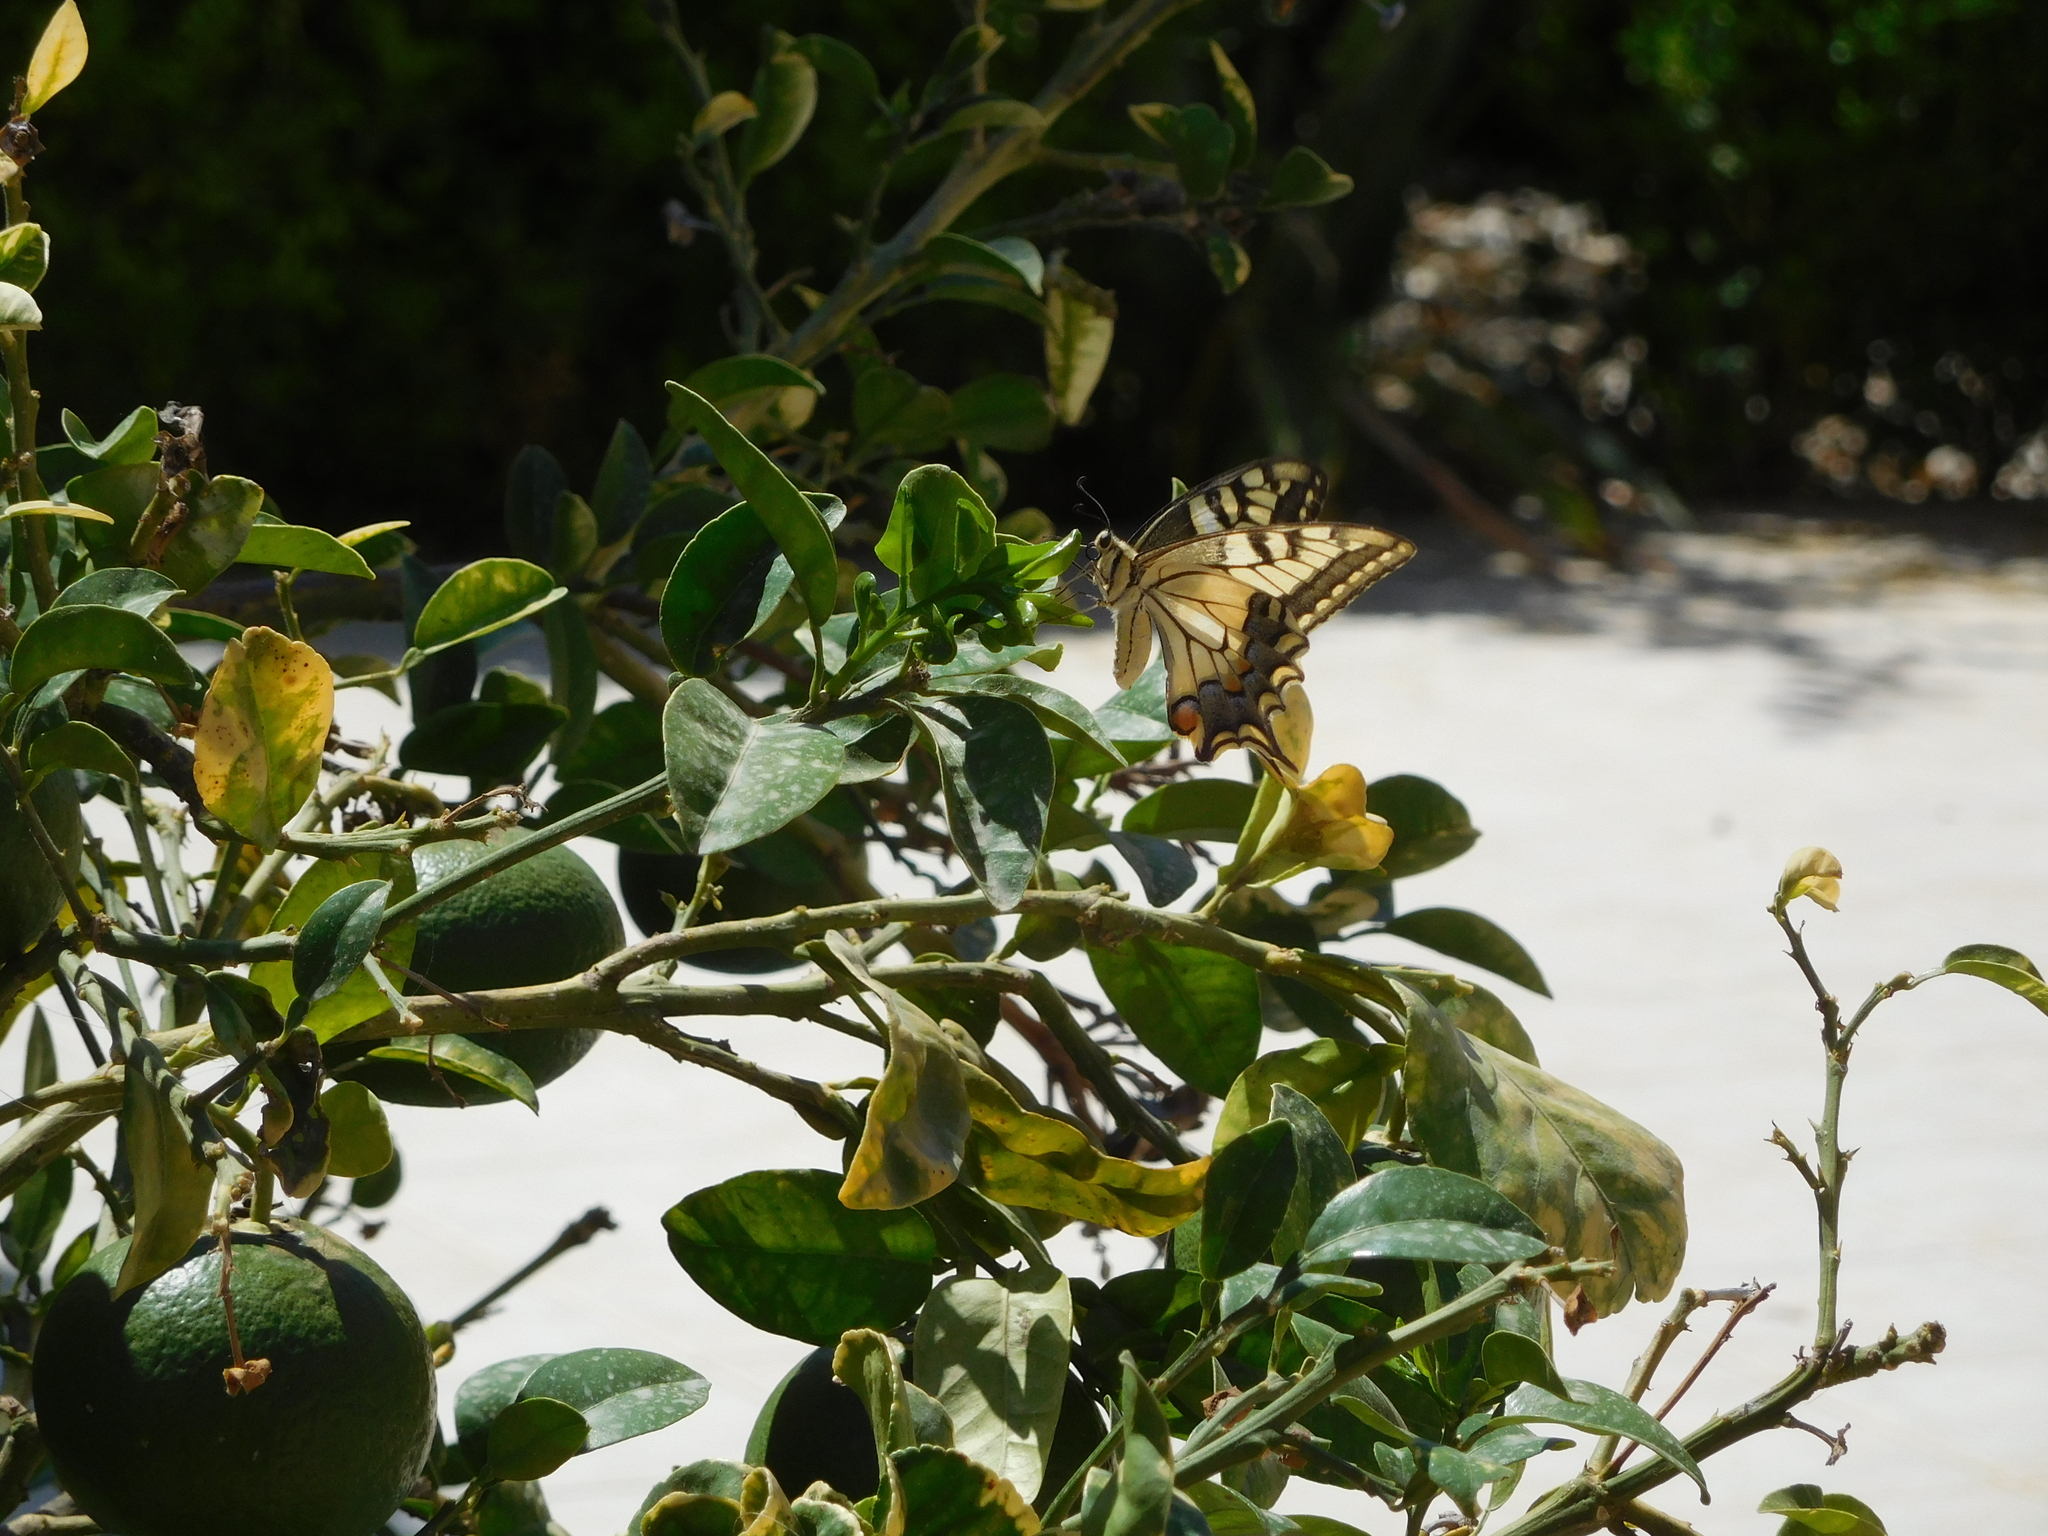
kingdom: Animalia
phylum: Arthropoda
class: Insecta
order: Lepidoptera
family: Papilionidae
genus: Papilio
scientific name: Papilio machaon
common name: Swallowtail
